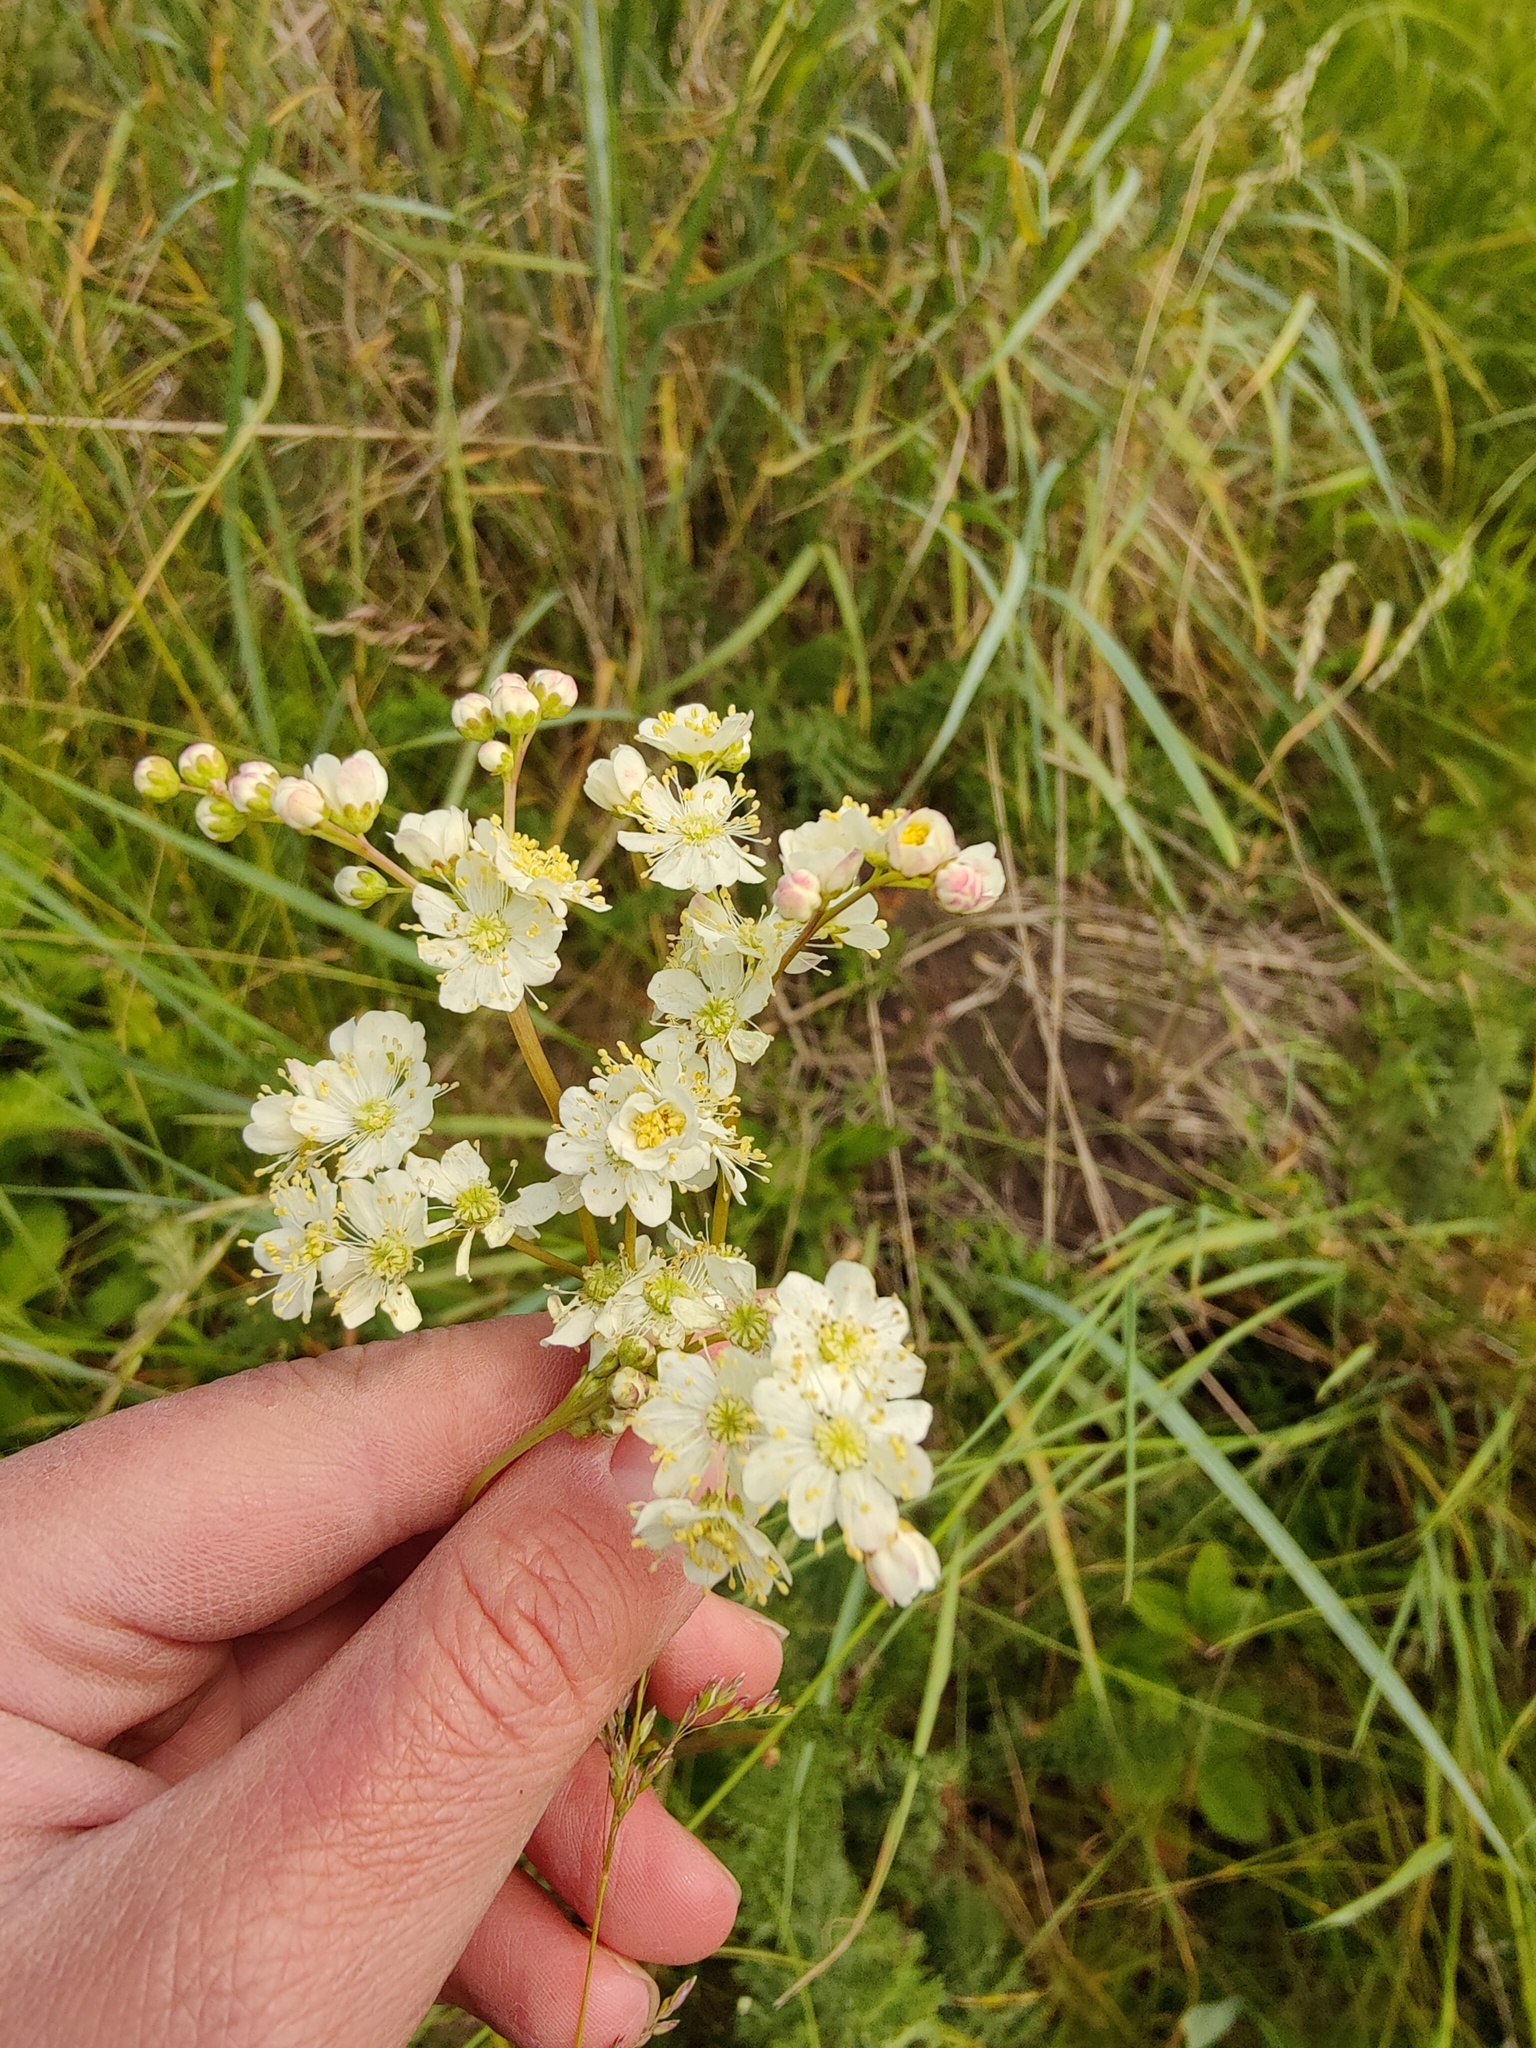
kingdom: Plantae
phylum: Tracheophyta
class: Magnoliopsida
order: Rosales
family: Rosaceae
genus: Filipendula
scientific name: Filipendula vulgaris
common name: Dropwort
